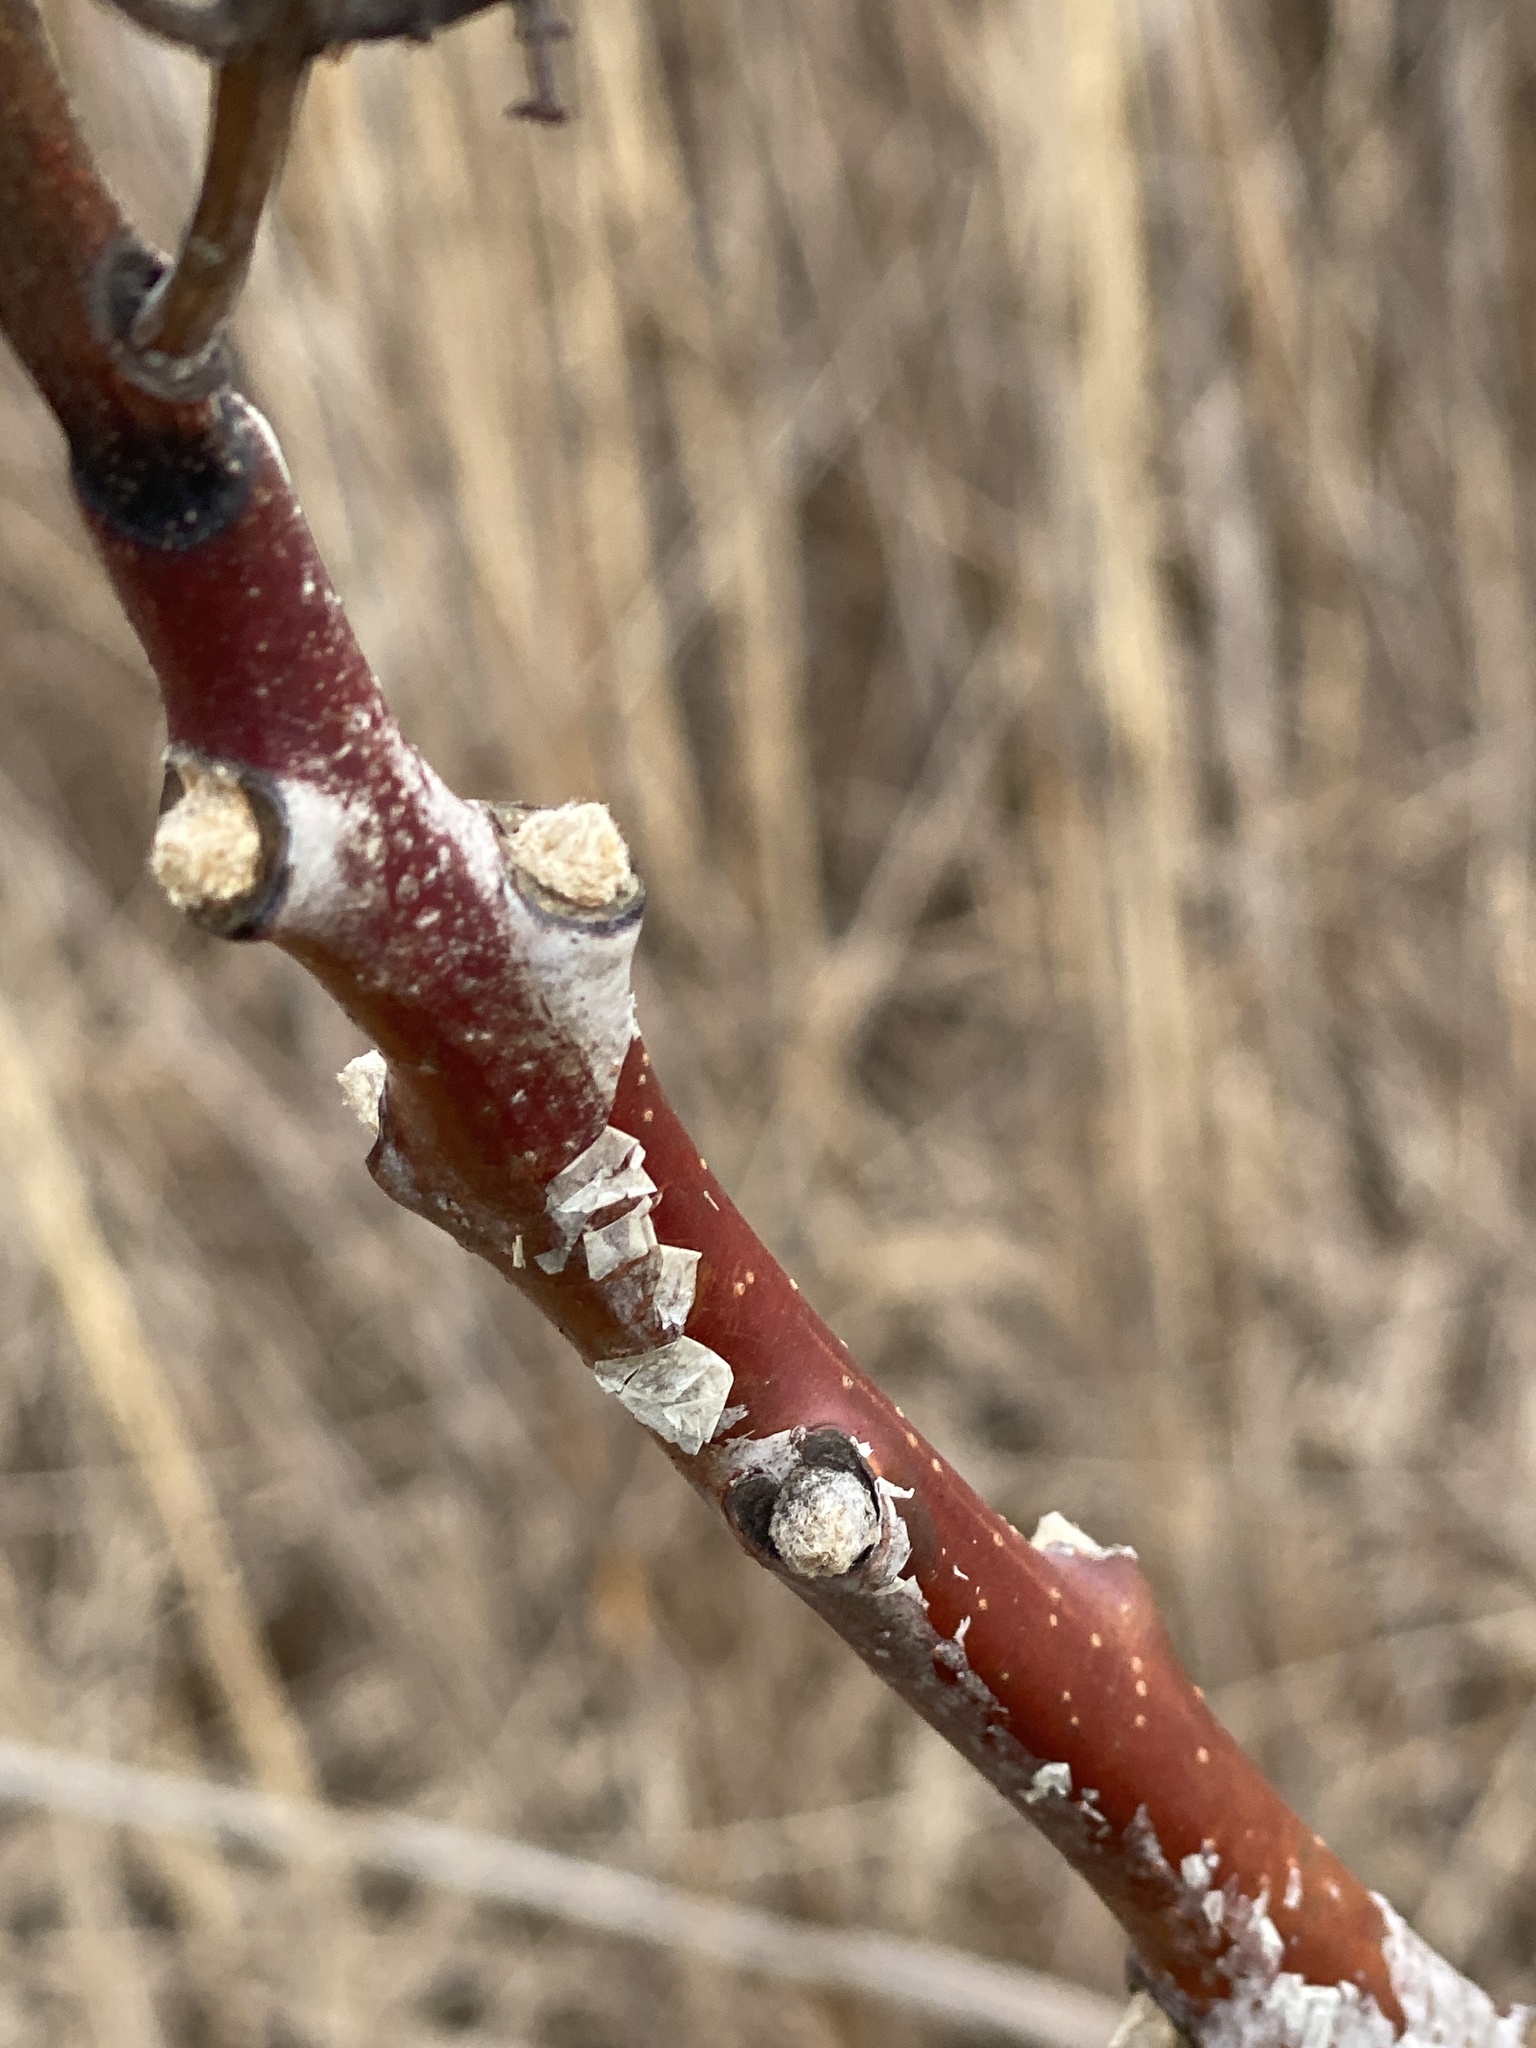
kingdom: Plantae
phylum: Tracheophyta
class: Magnoliopsida
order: Sapindales
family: Anacardiaceae
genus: Rhus
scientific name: Rhus glabra
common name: Scarlet sumac
